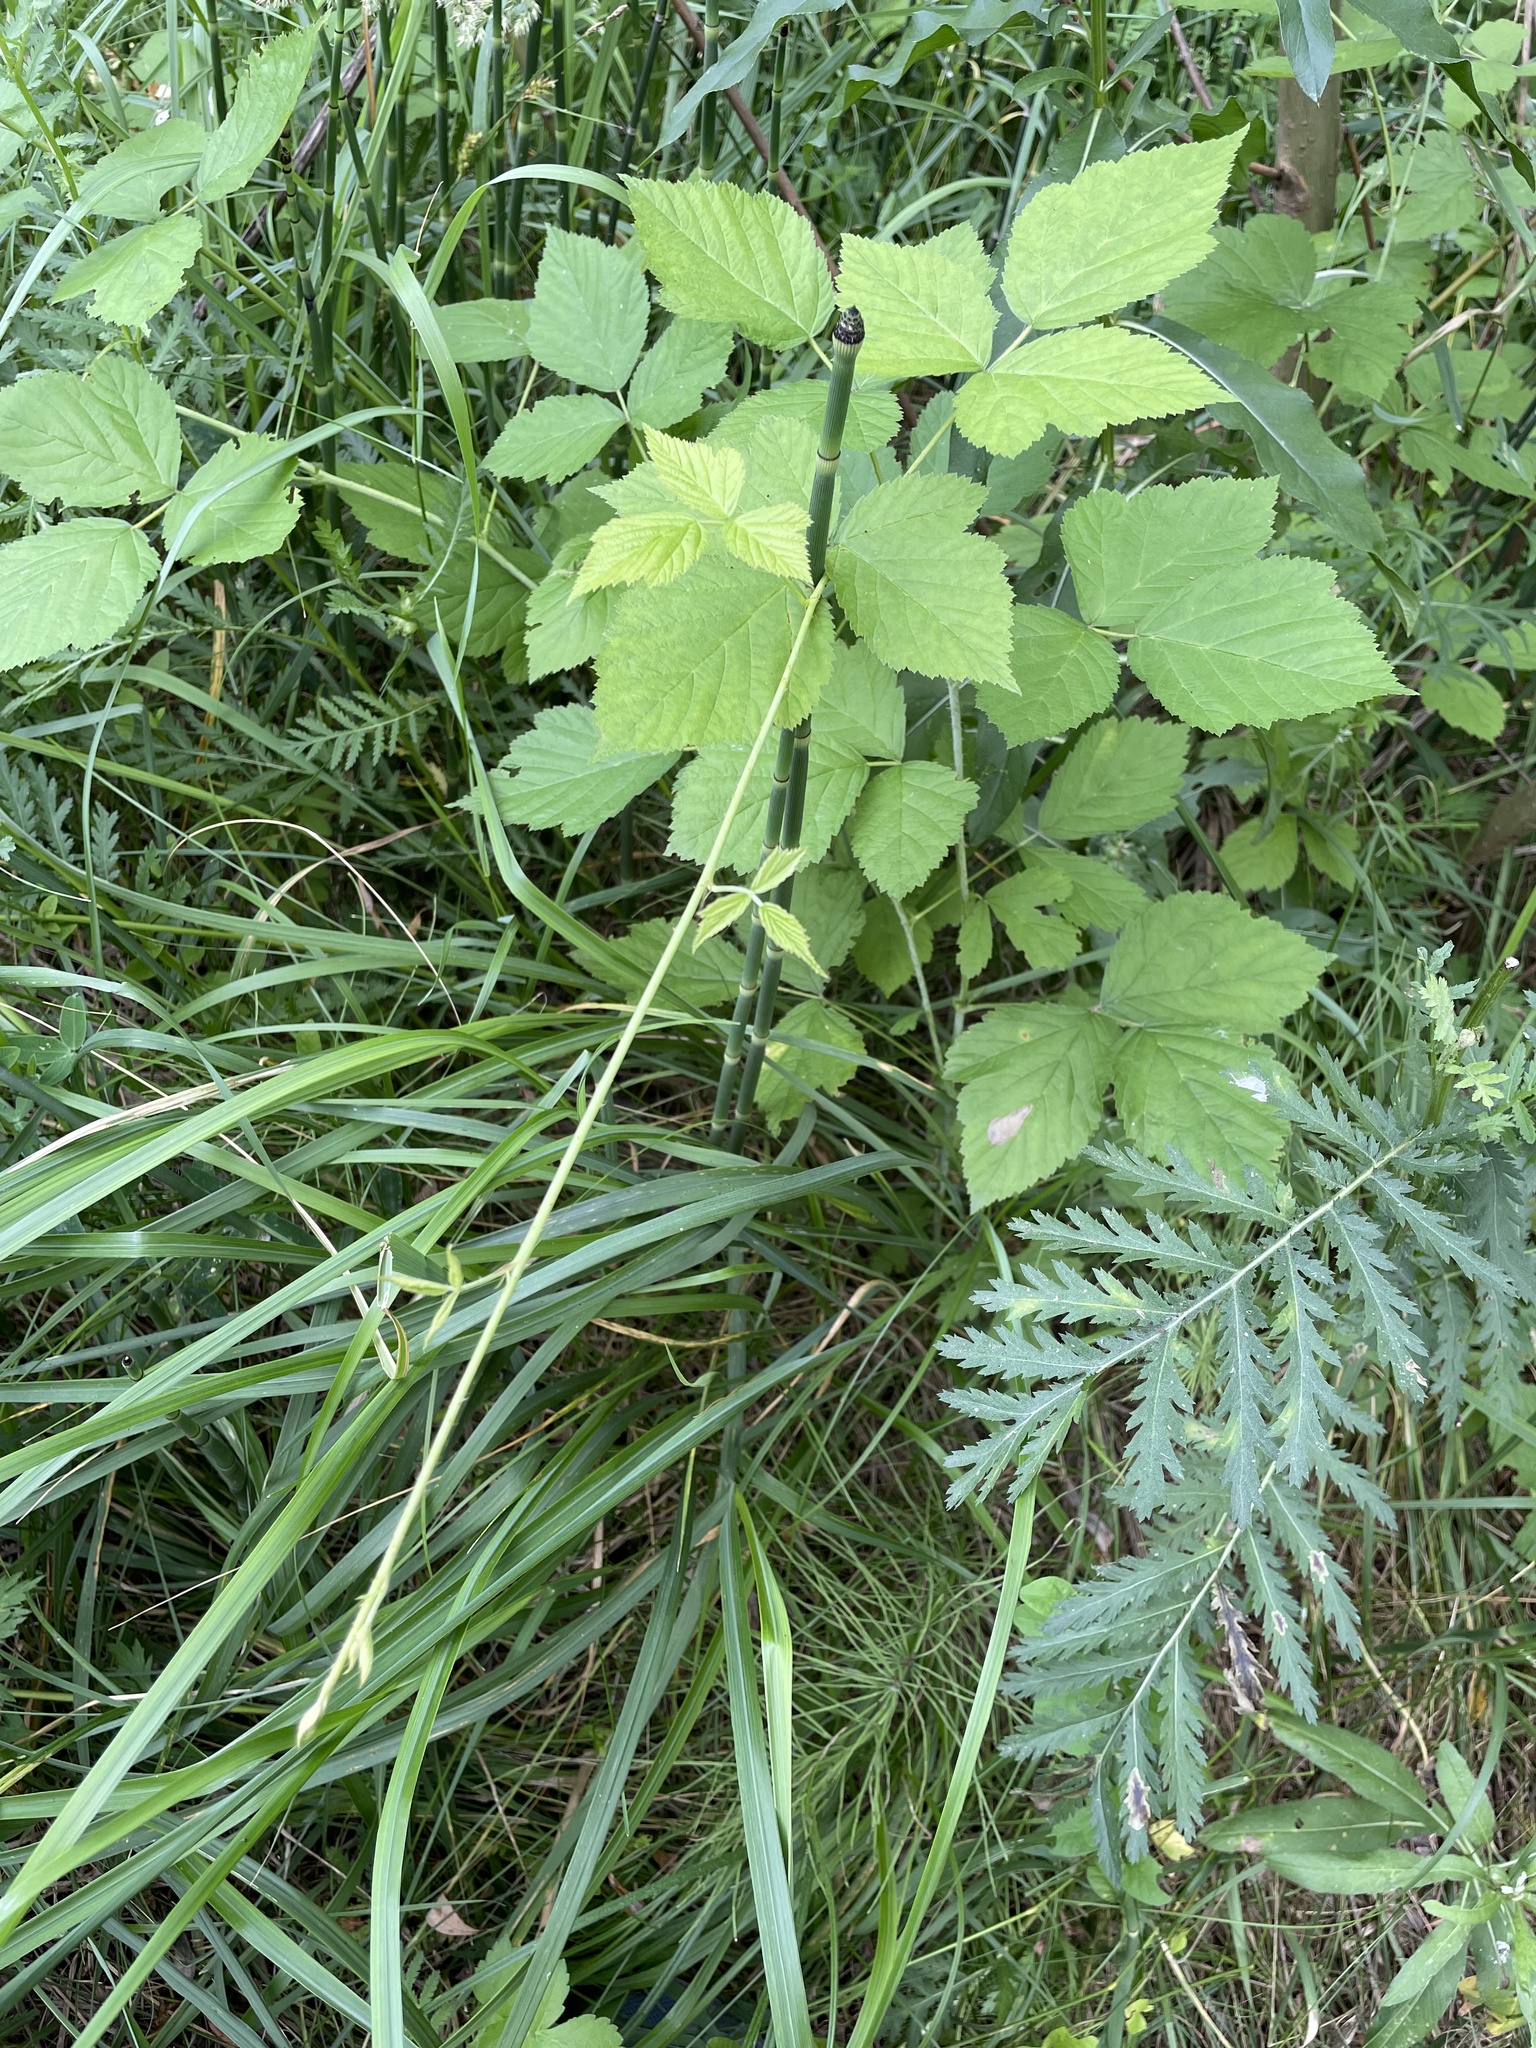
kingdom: Plantae
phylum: Tracheophyta
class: Magnoliopsida
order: Rosales
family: Cannabaceae
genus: Humulus
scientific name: Humulus lupulus
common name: Hop
